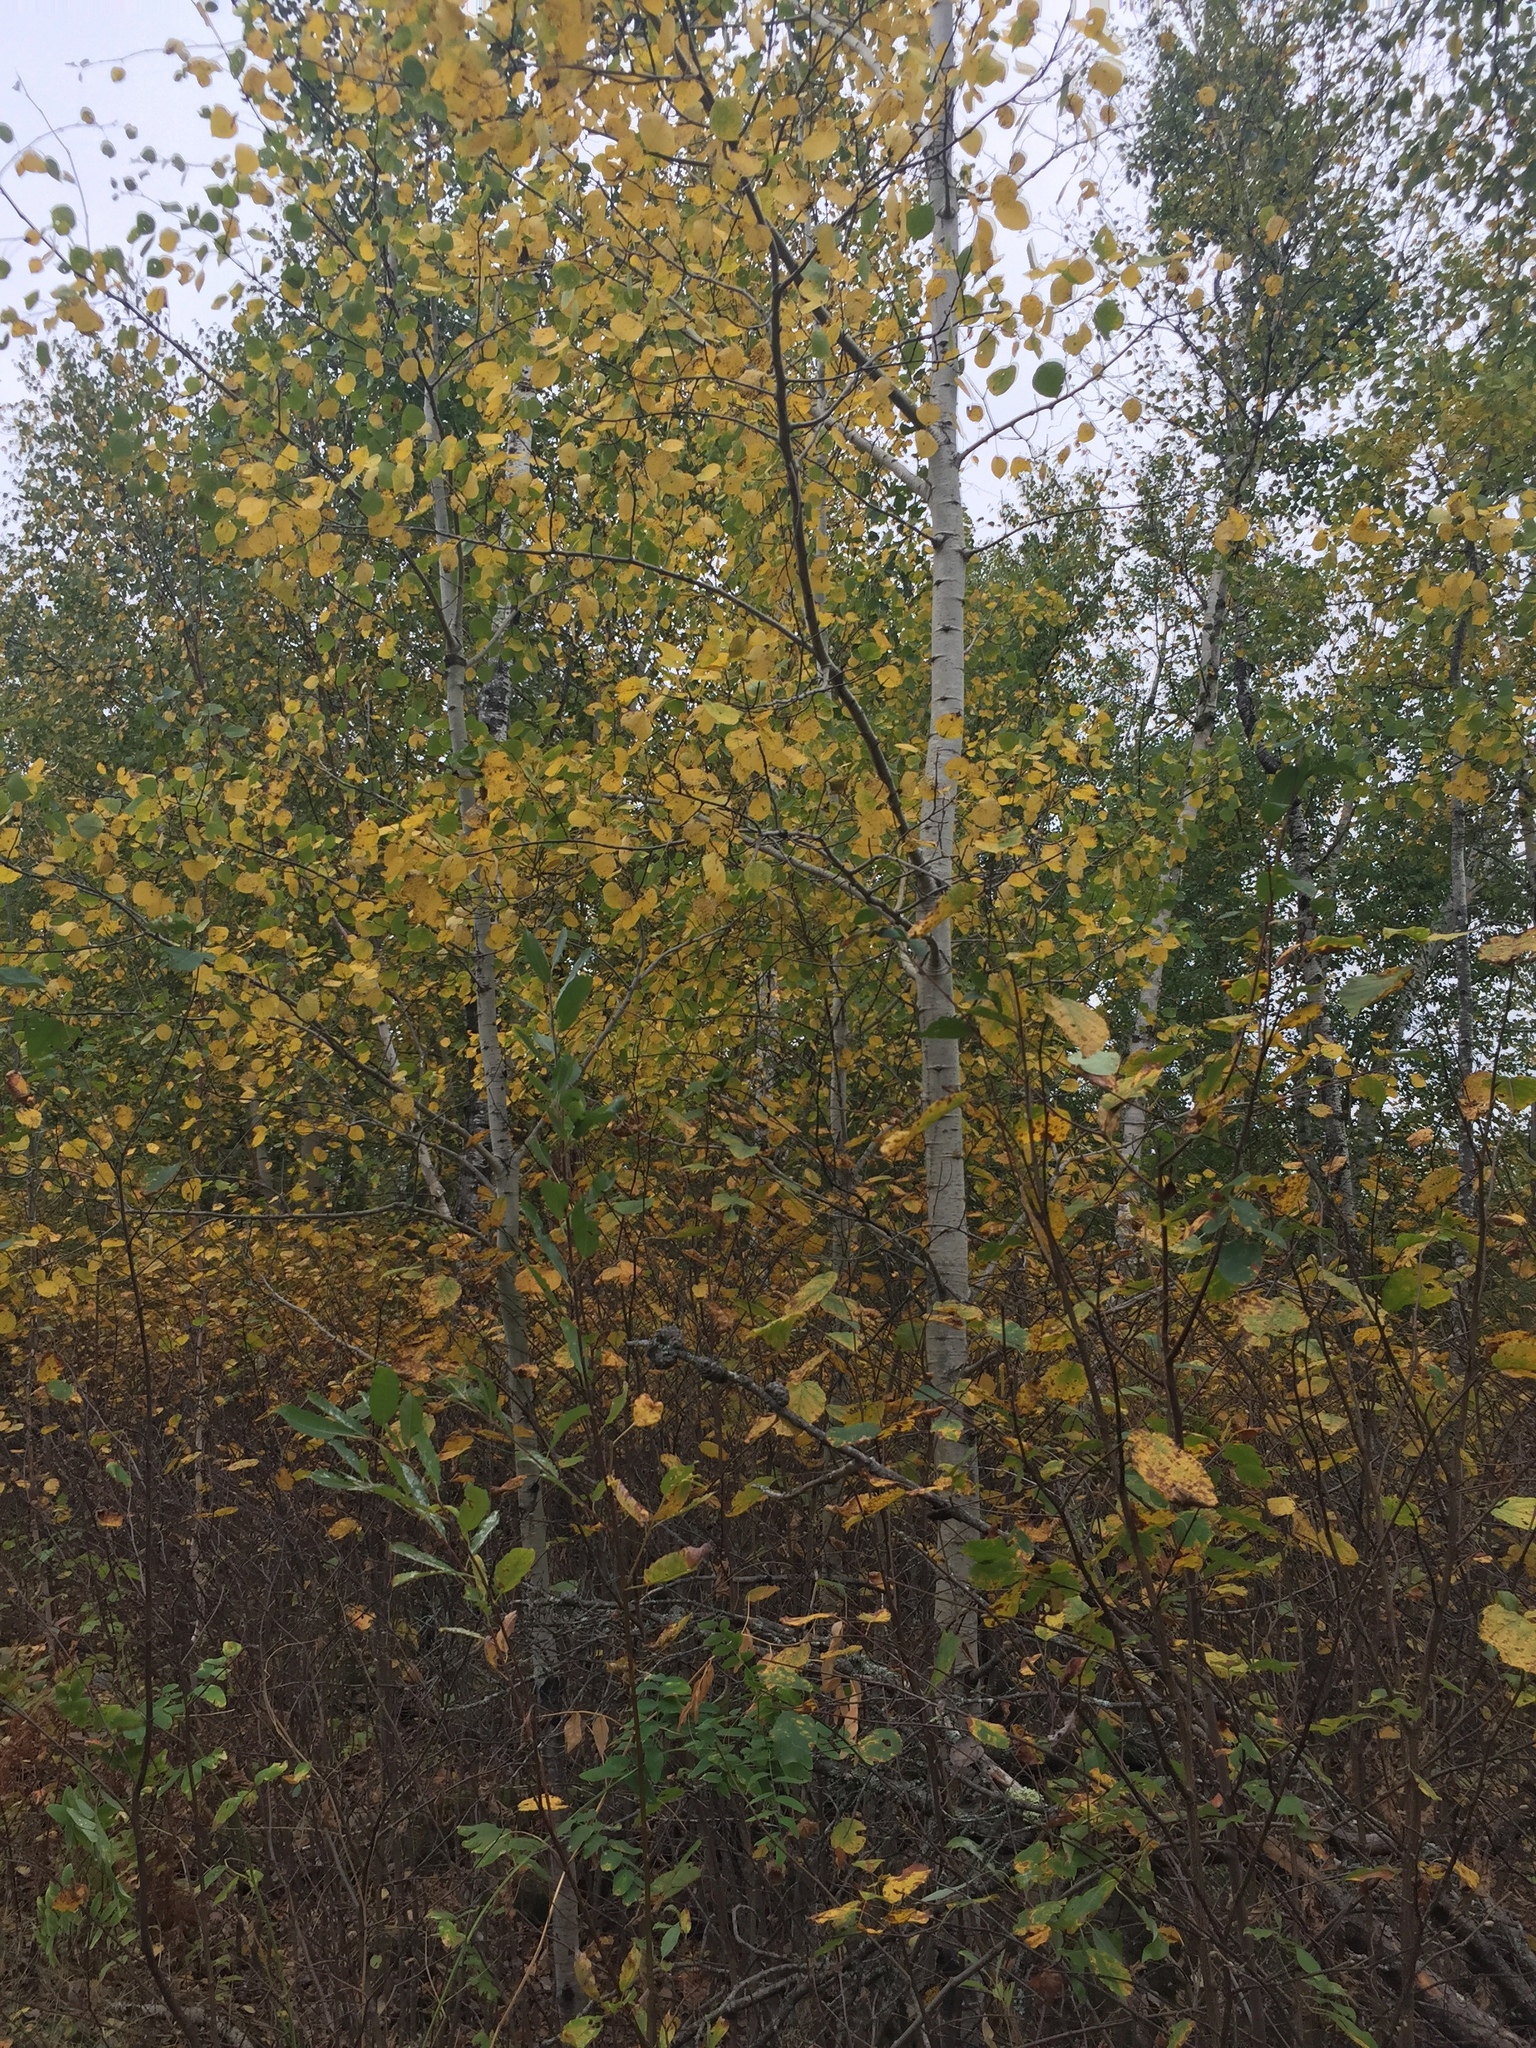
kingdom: Plantae
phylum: Tracheophyta
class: Magnoliopsida
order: Malpighiales
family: Salicaceae
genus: Populus
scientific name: Populus tremuloides
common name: Quaking aspen
